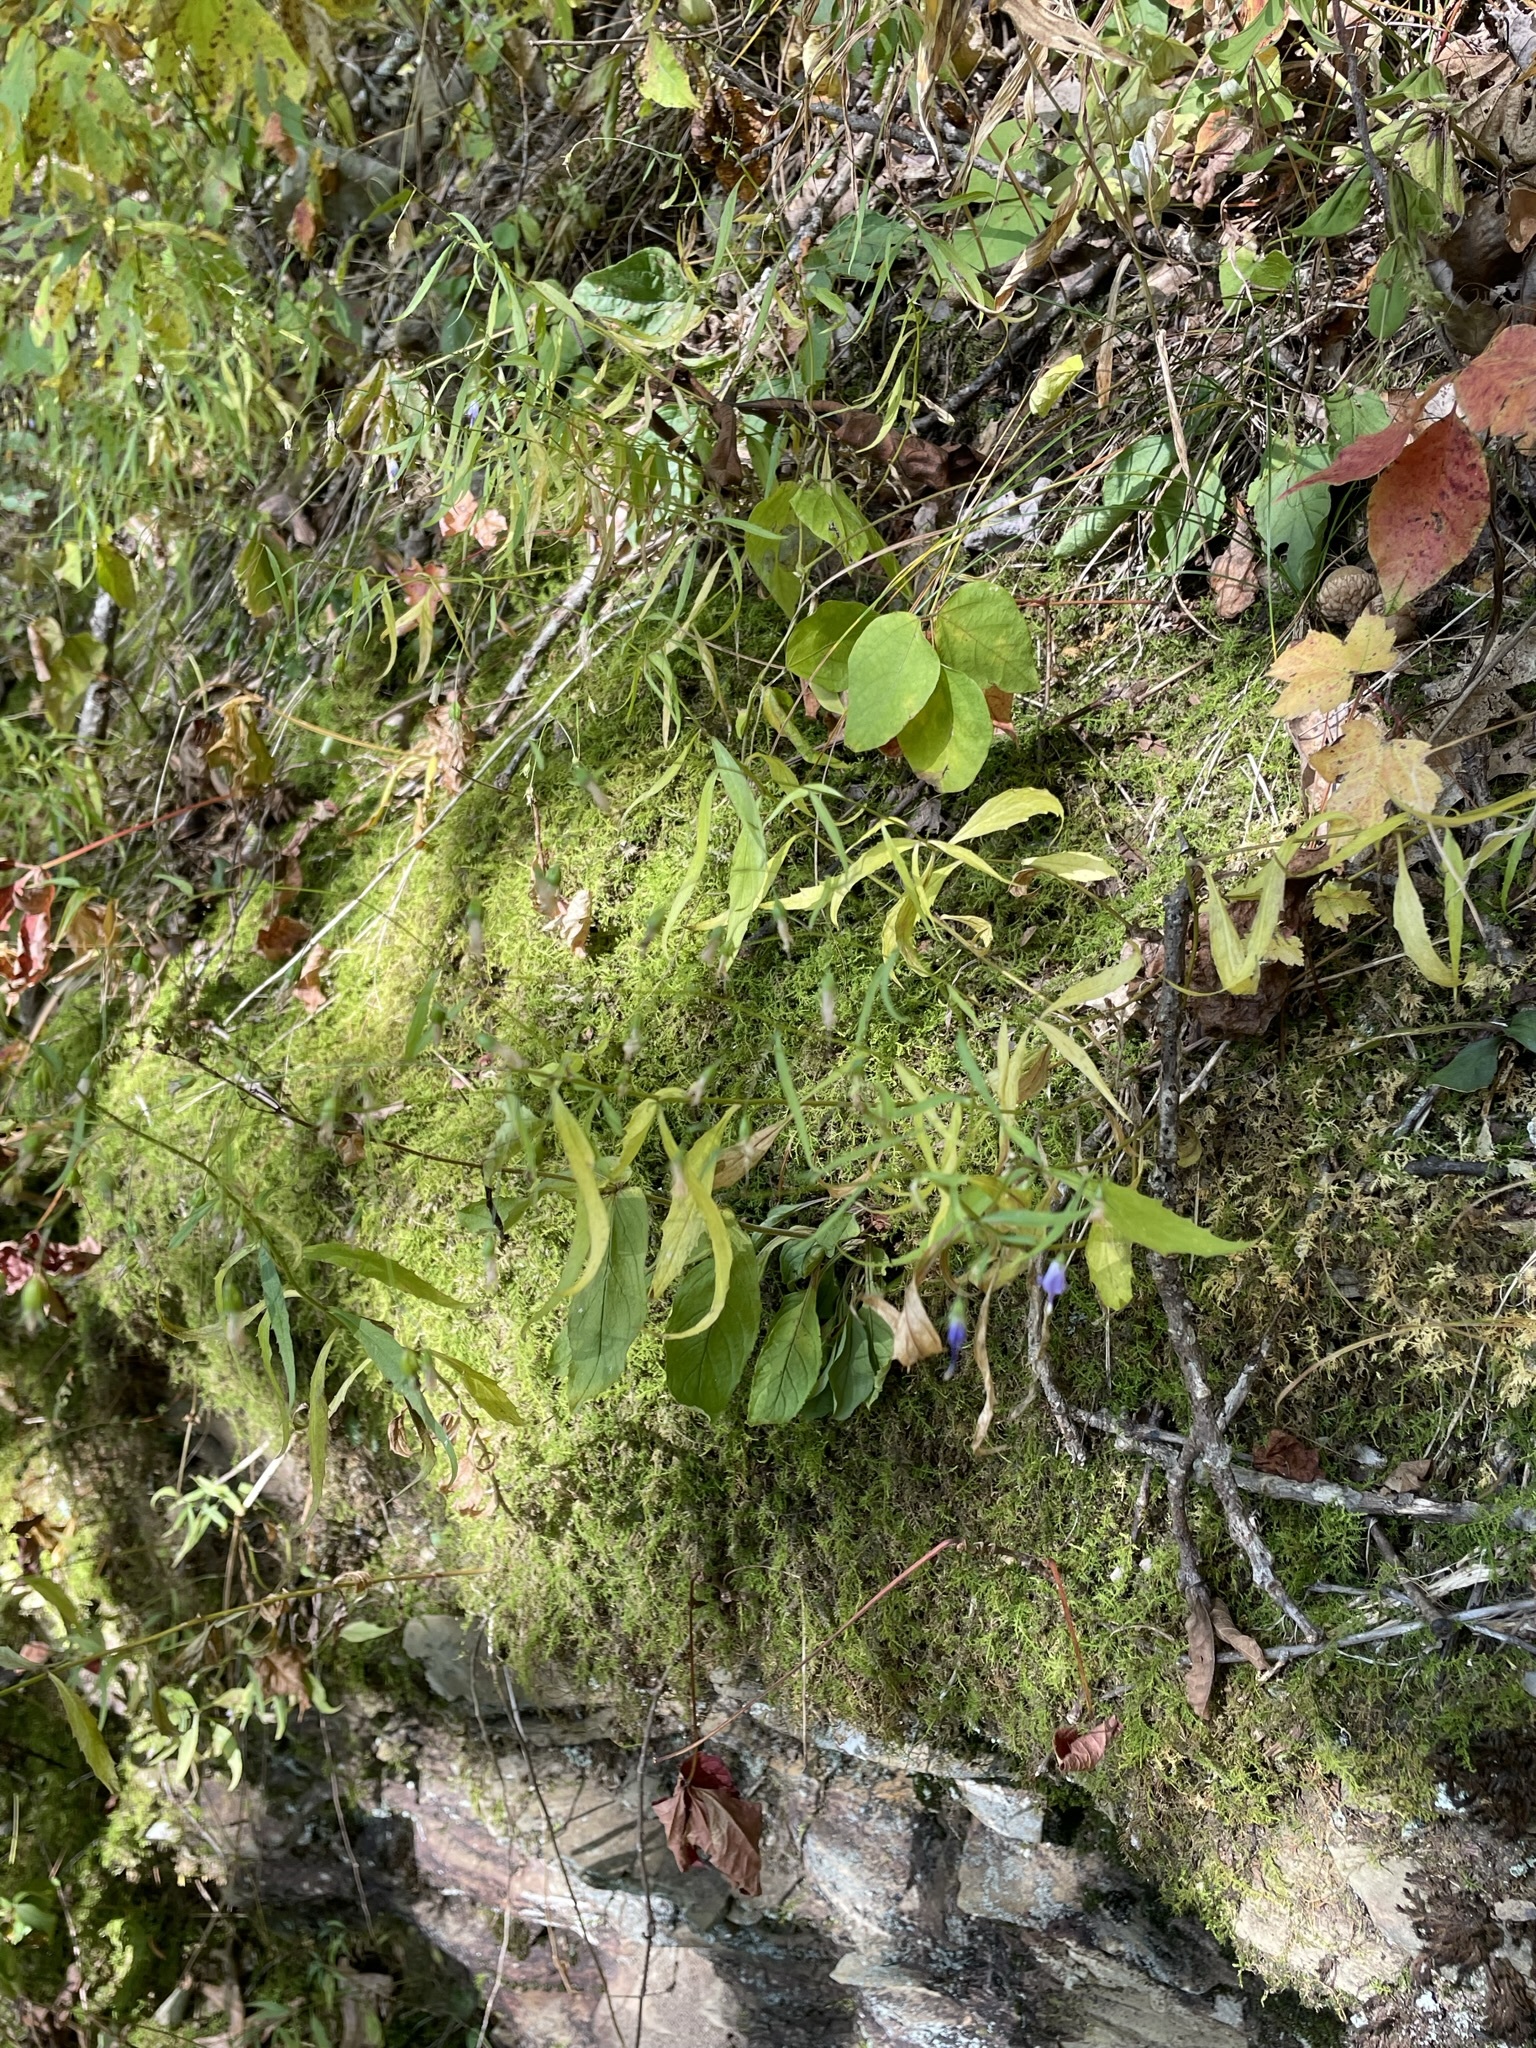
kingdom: Plantae
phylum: Tracheophyta
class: Magnoliopsida
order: Asterales
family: Campanulaceae
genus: Campanula
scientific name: Campanula divaricata
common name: Appalachian bellflower
